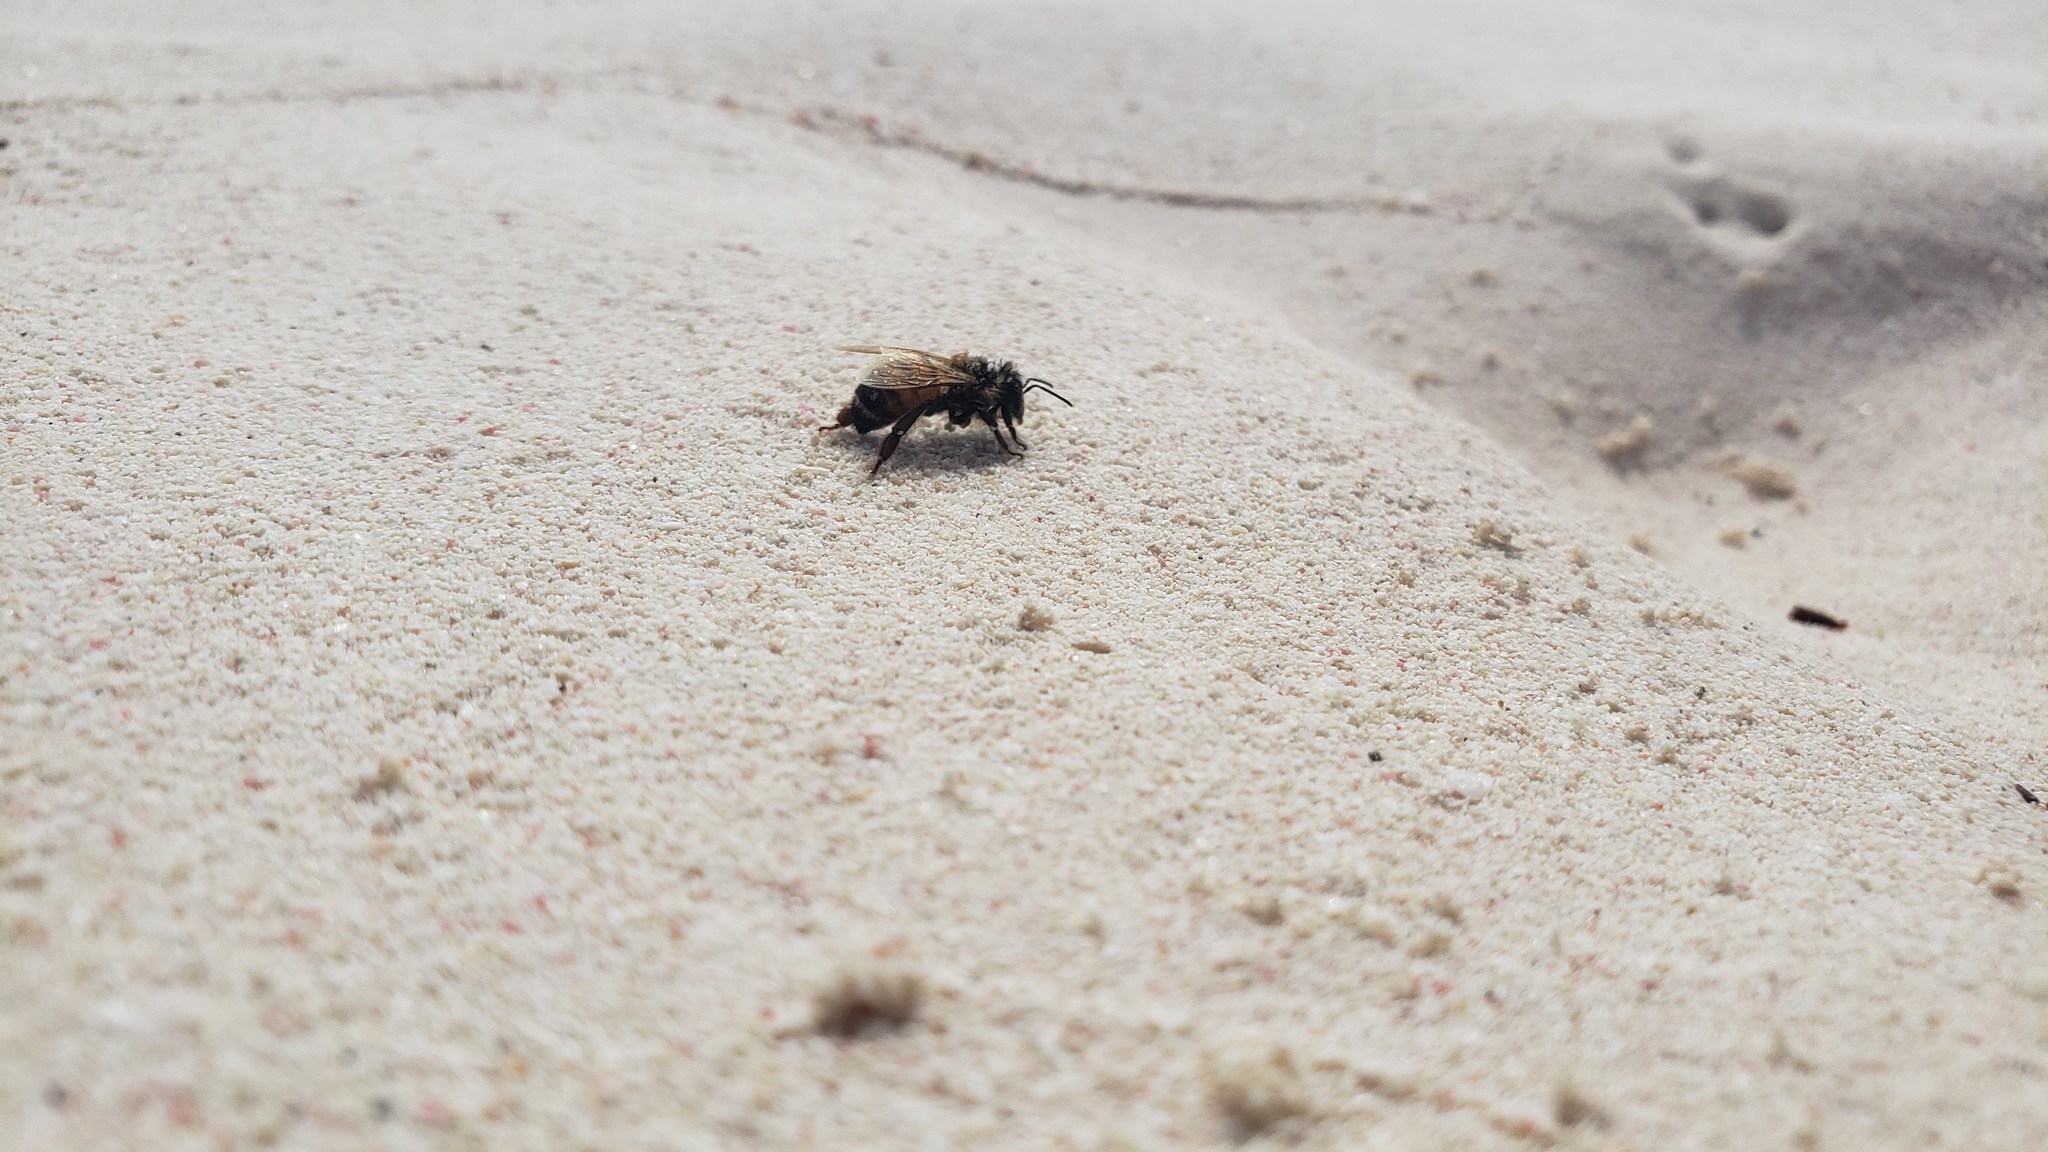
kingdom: Animalia
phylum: Arthropoda
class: Insecta
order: Hymenoptera
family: Apidae
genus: Apis
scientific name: Apis mellifera
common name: Honey bee
